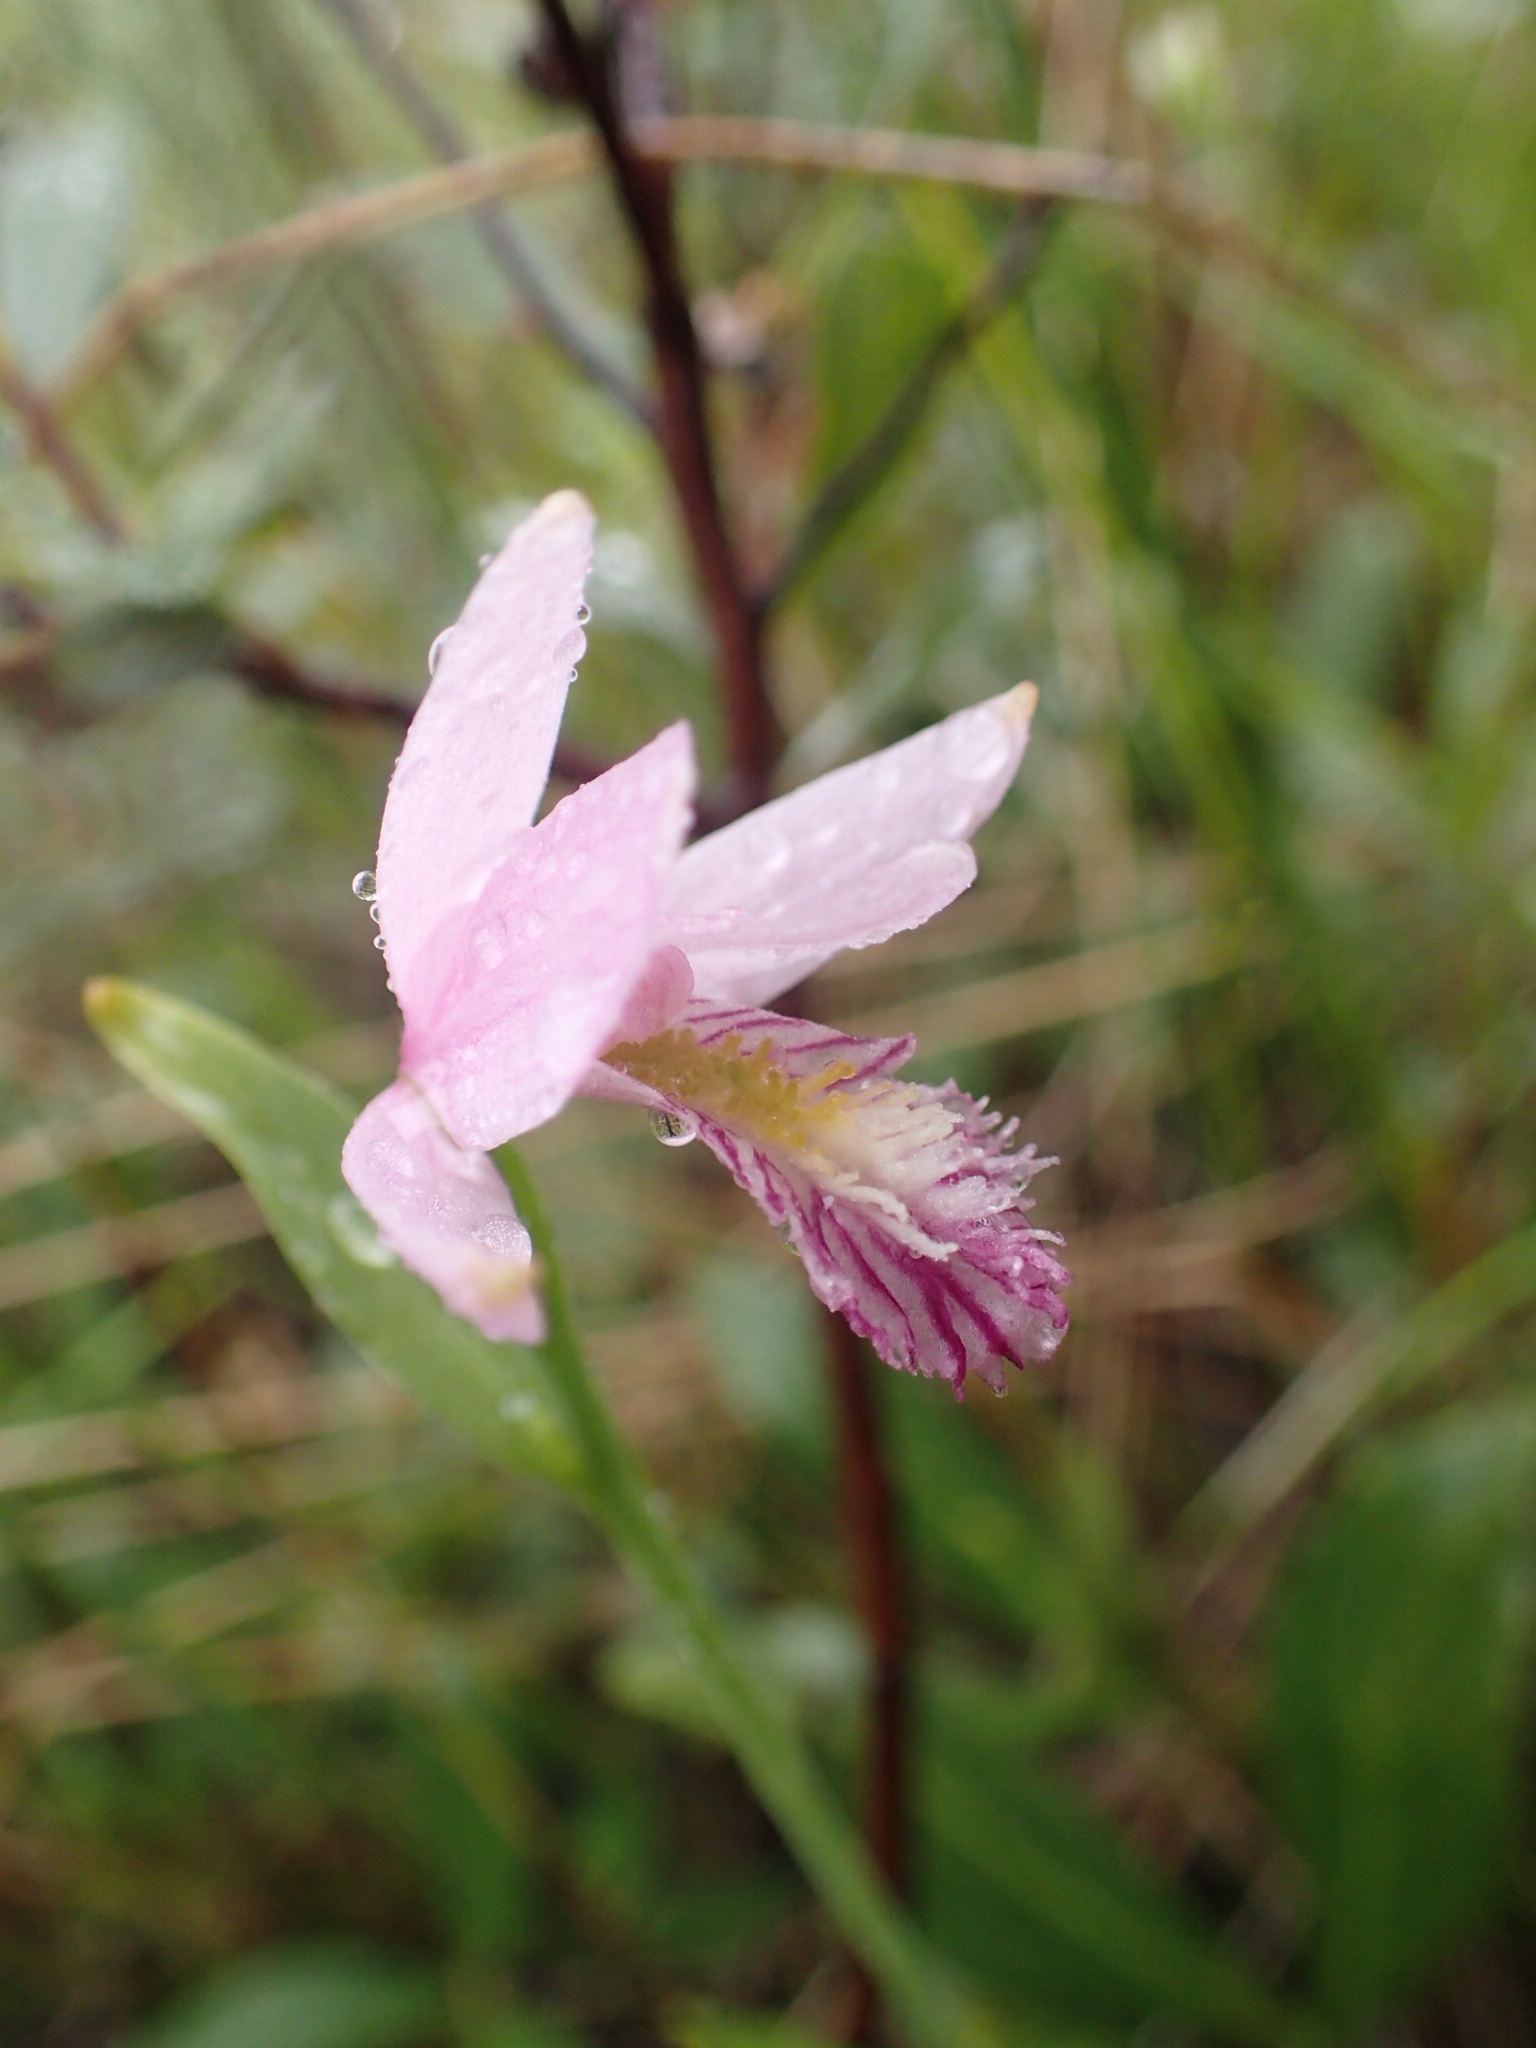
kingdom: Plantae
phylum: Tracheophyta
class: Liliopsida
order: Asparagales
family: Orchidaceae
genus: Pogonia
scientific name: Pogonia ophioglossoides
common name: Rose pogonia
